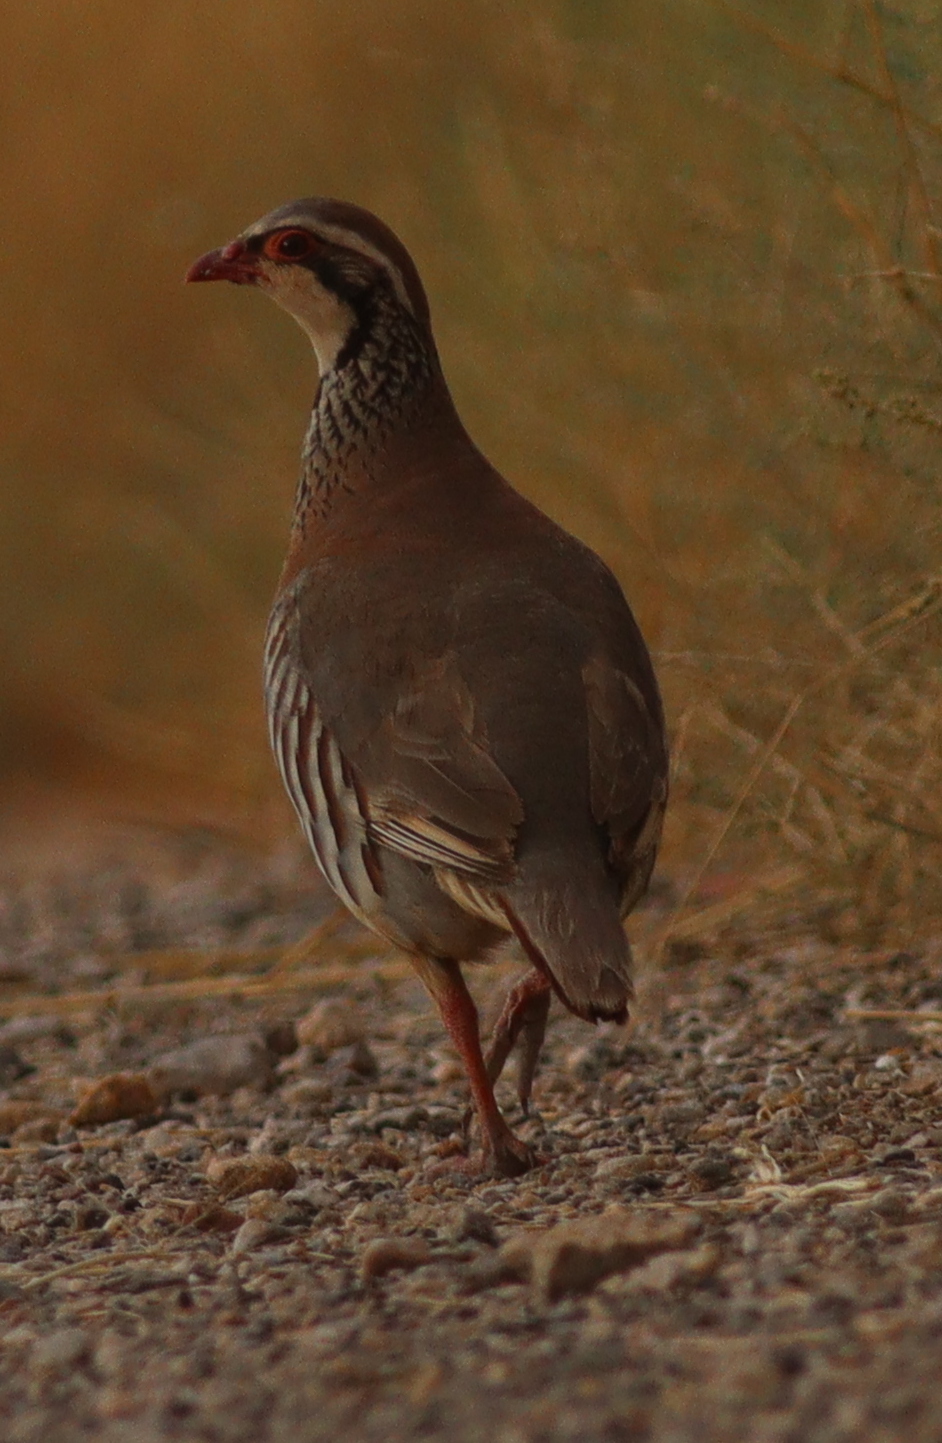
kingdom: Animalia
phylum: Chordata
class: Aves
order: Galliformes
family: Phasianidae
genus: Alectoris
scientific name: Alectoris rufa
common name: Red-legged partridge
